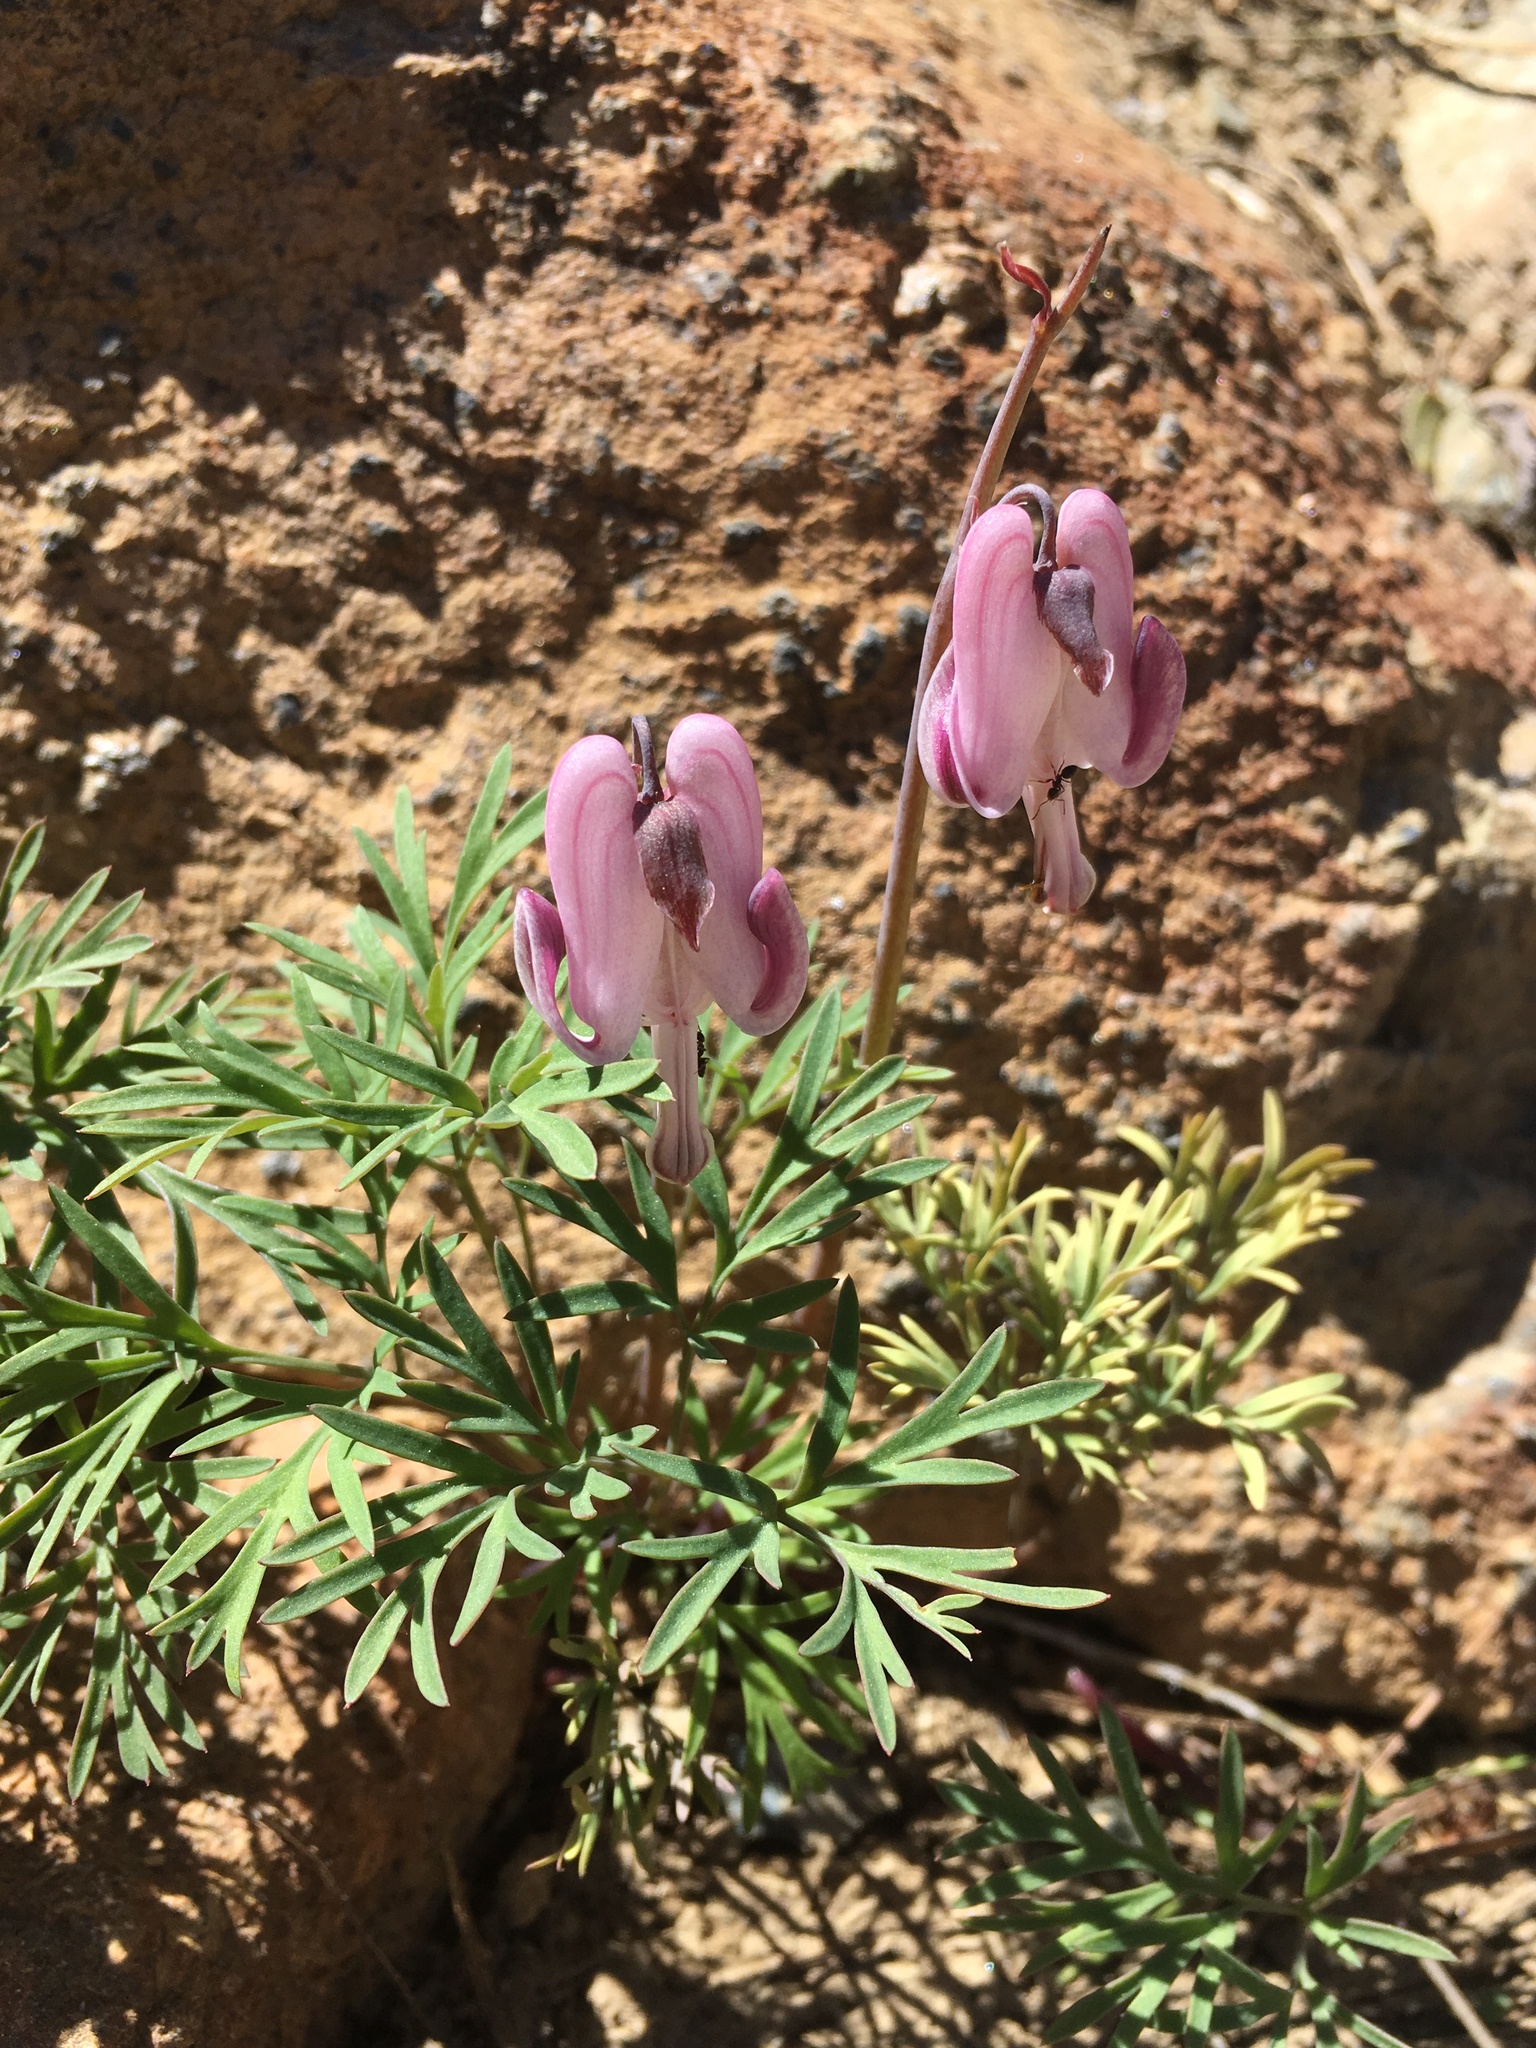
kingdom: Plantae
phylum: Tracheophyta
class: Magnoliopsida
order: Ranunculales
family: Papaveraceae
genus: Dicentra
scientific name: Dicentra pauciflora
